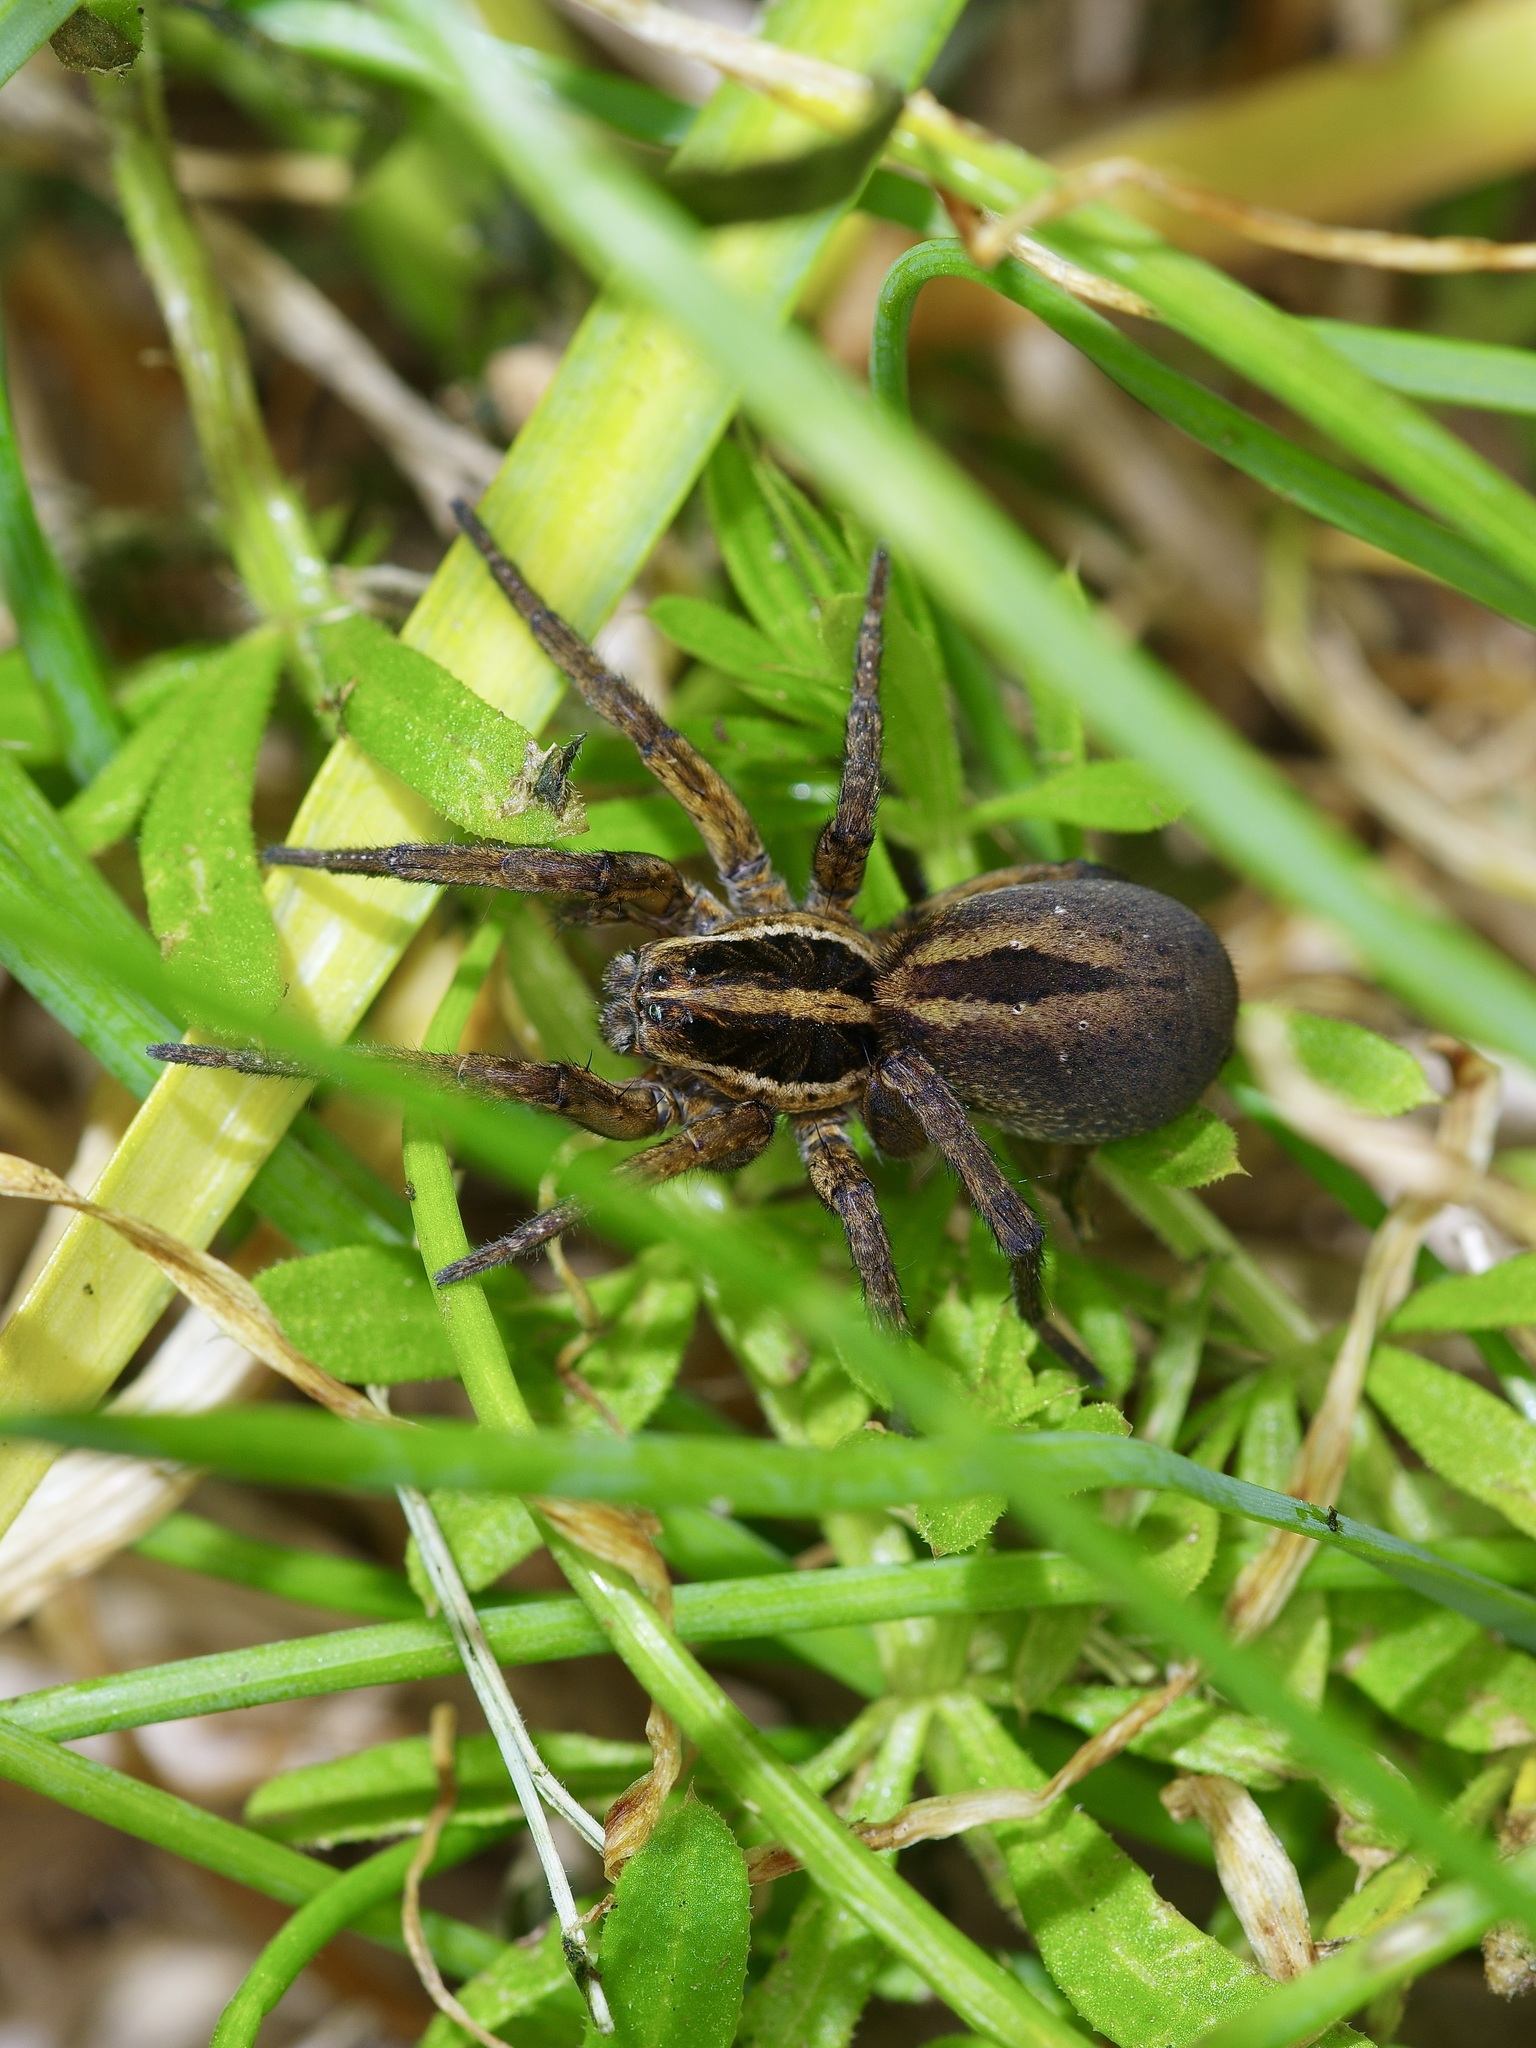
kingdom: Animalia
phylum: Arthropoda
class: Arachnida
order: Araneae
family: Lycosidae
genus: Tigrosa
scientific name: Tigrosa annexa
